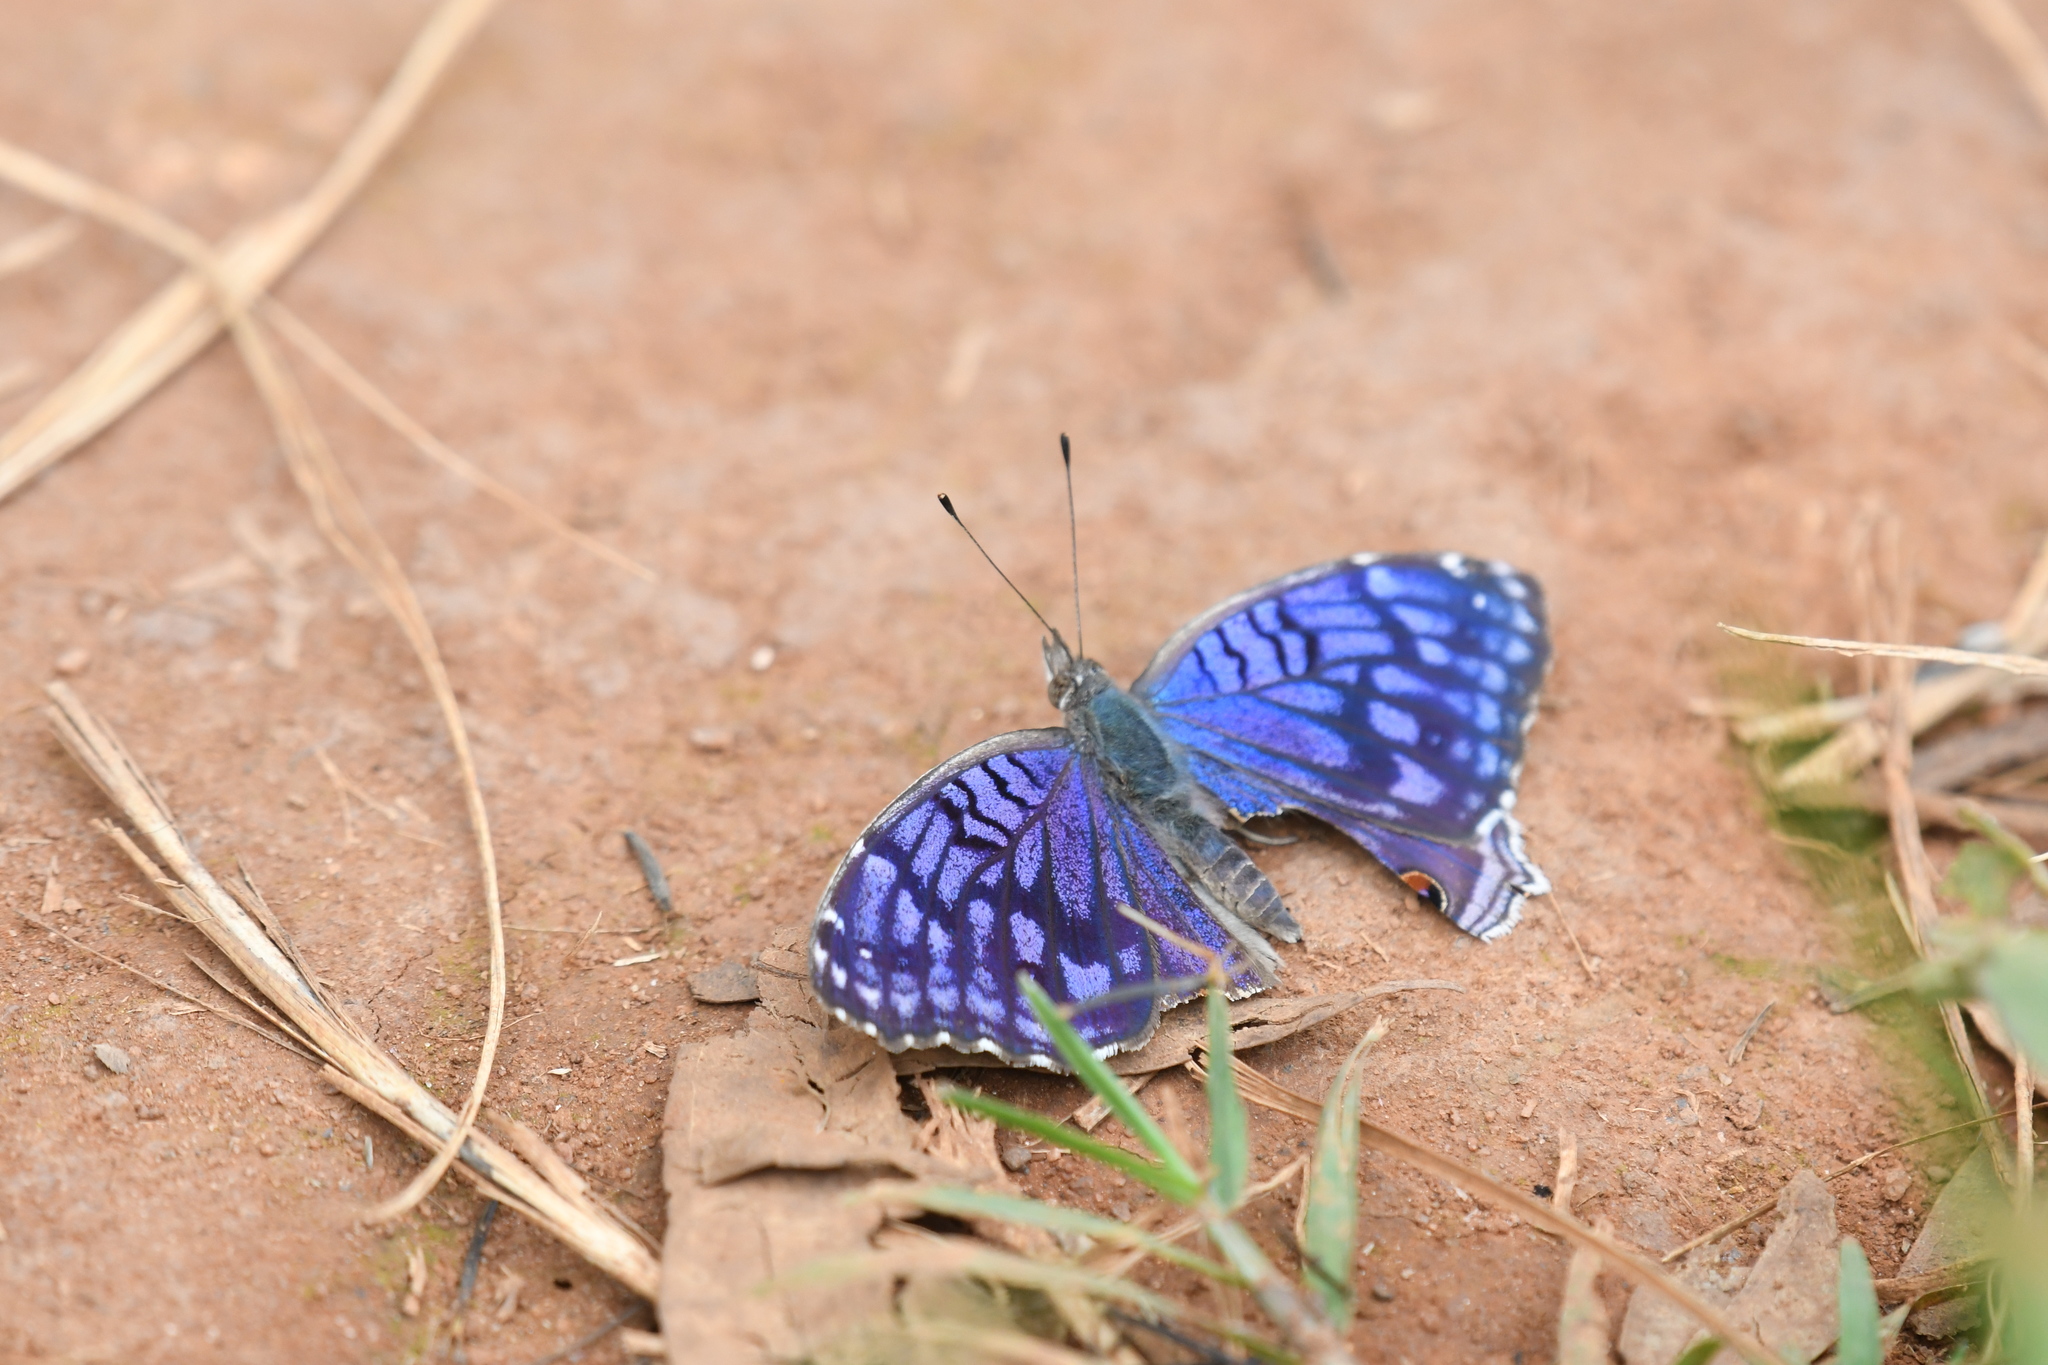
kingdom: Animalia
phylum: Arthropoda
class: Insecta
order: Lepidoptera
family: Nymphalidae
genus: Junonia
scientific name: Junonia rhadama
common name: Royal blue pansy
